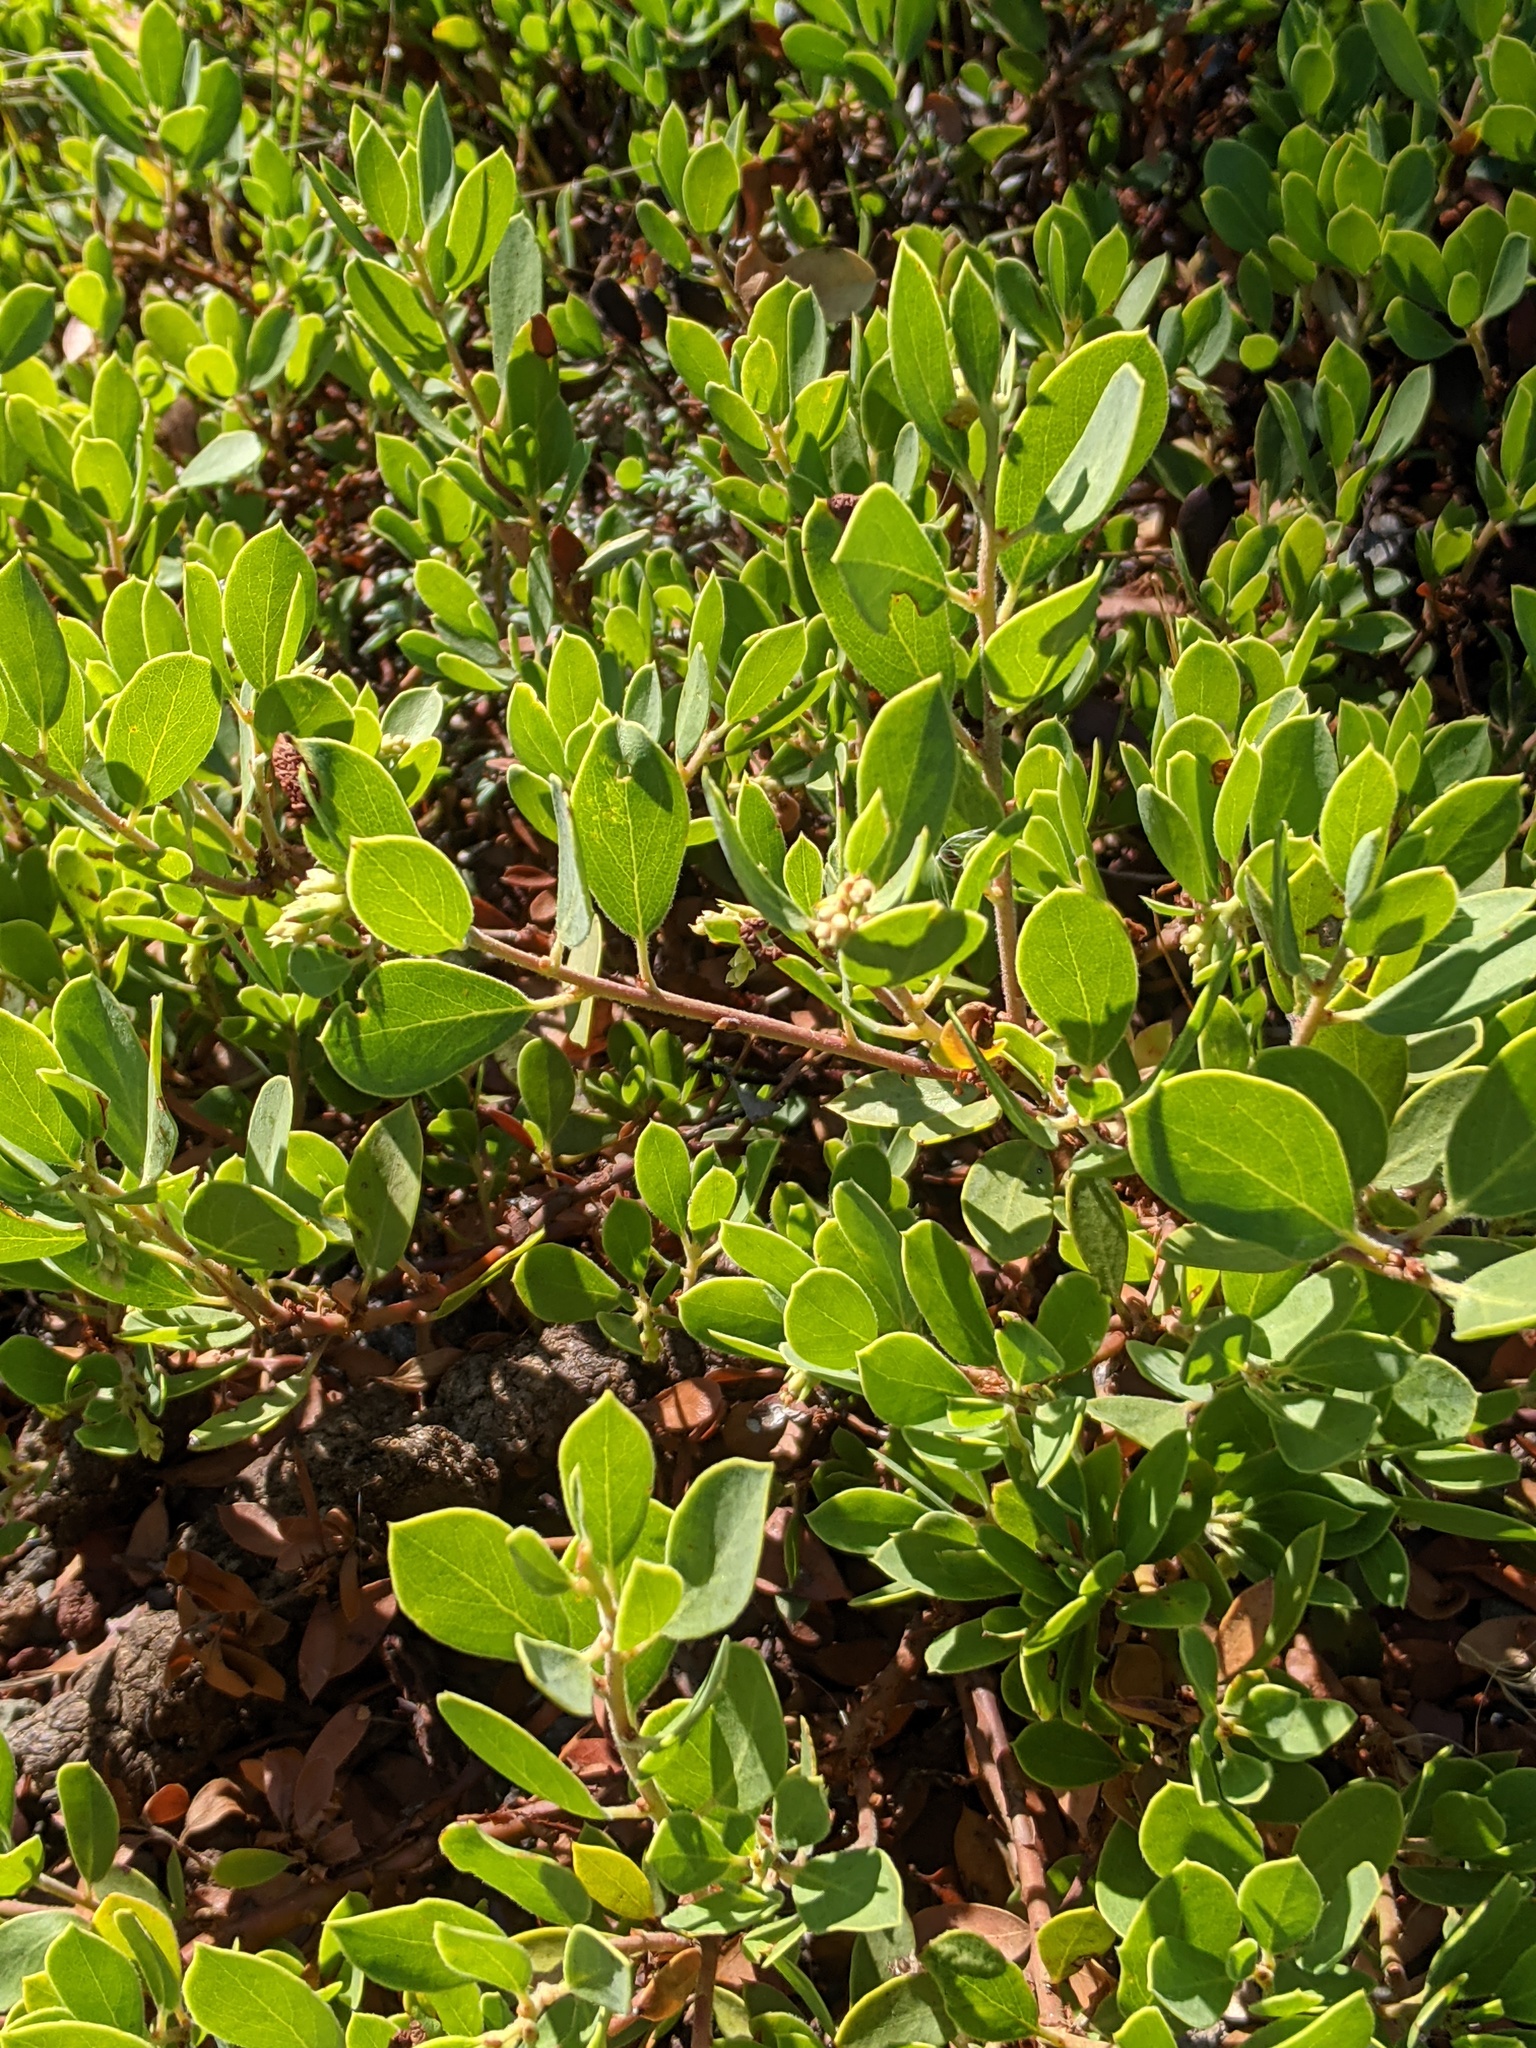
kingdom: Plantae
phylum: Tracheophyta
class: Magnoliopsida
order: Ericales
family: Ericaceae
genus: Arctostaphylos
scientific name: Arctostaphylos nevadensis
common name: Pinemat manzanita
